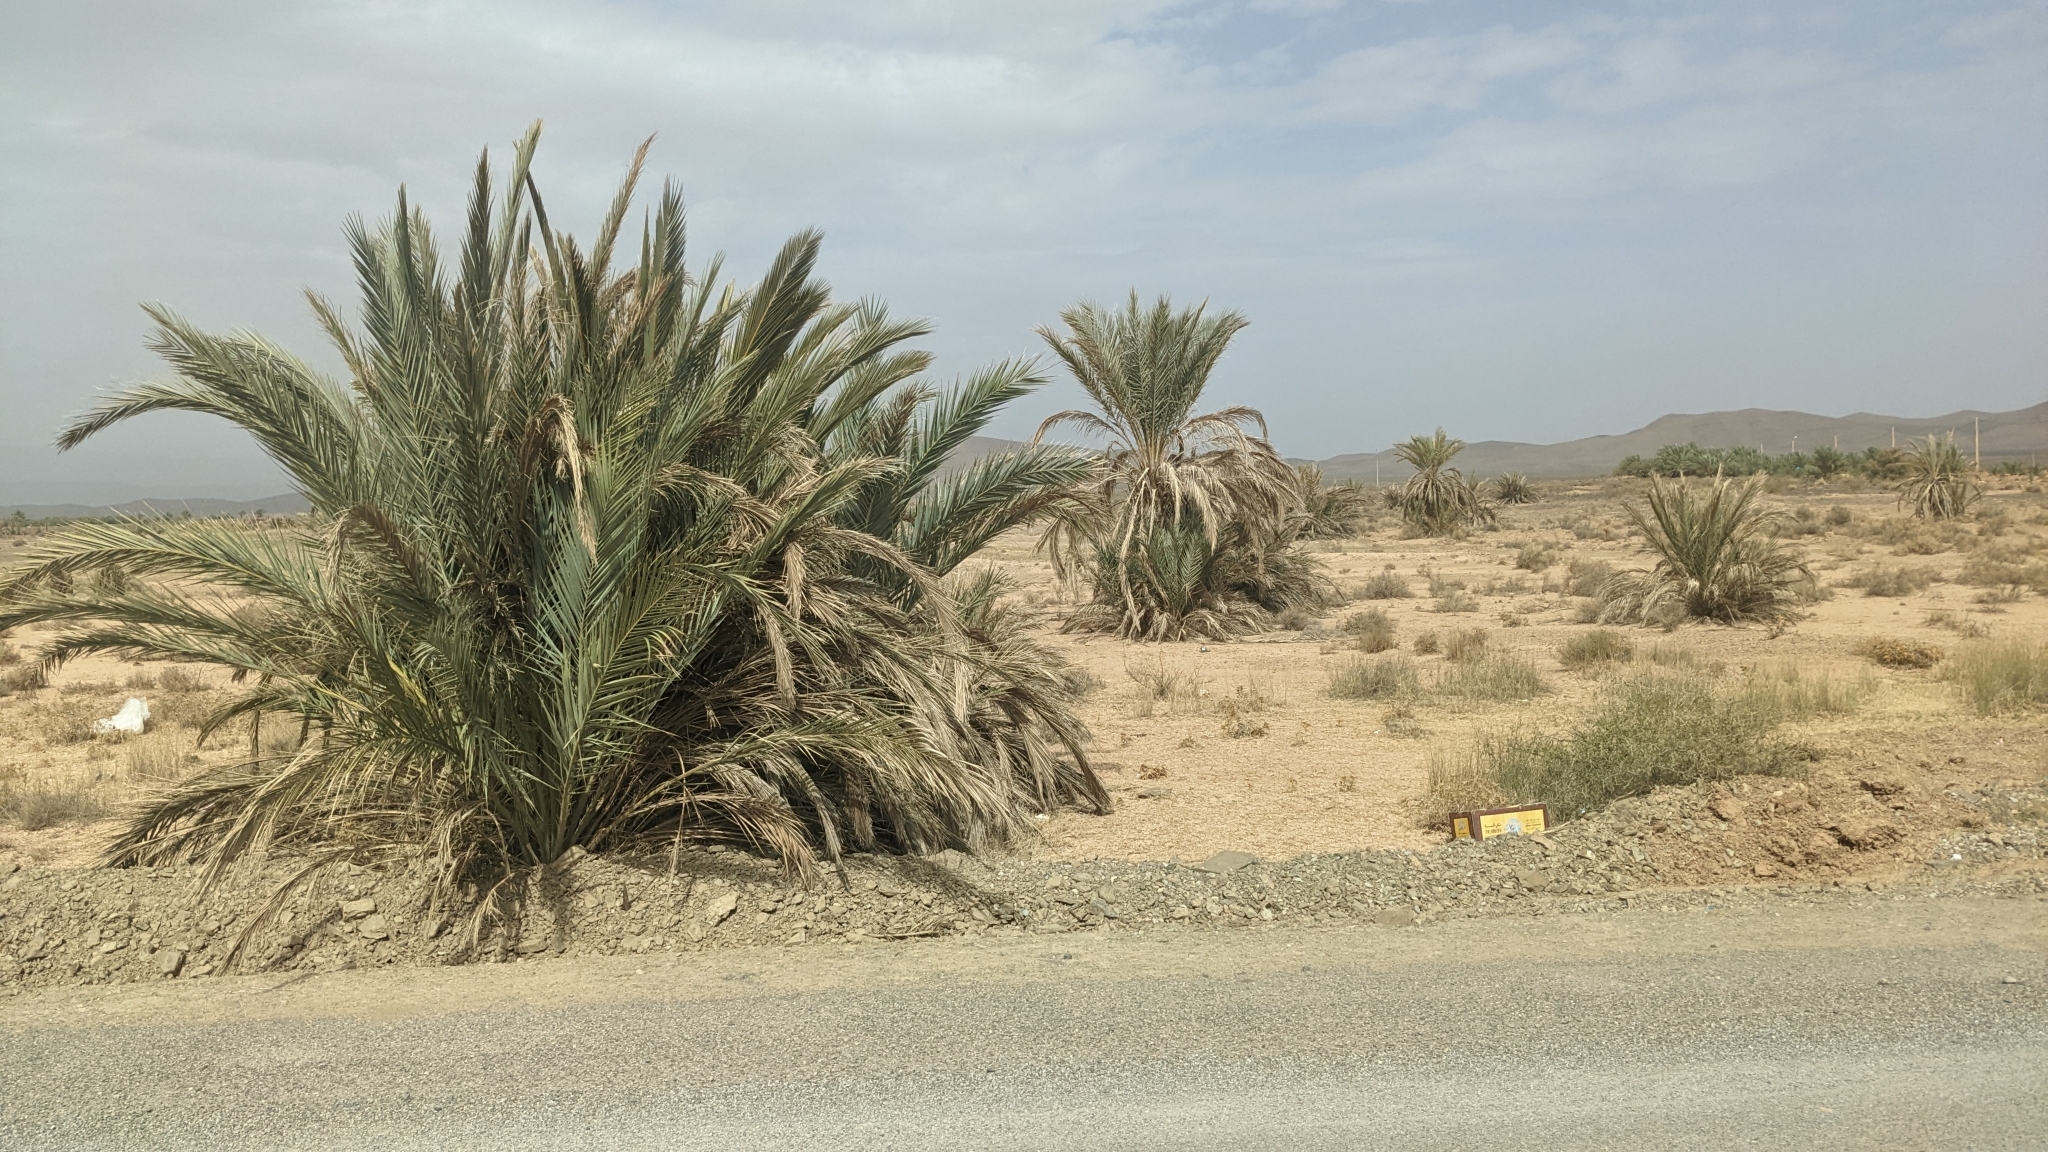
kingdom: Plantae
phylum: Tracheophyta
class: Liliopsida
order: Arecales
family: Arecaceae
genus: Phoenix
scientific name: Phoenix dactylifera
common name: Date palm
